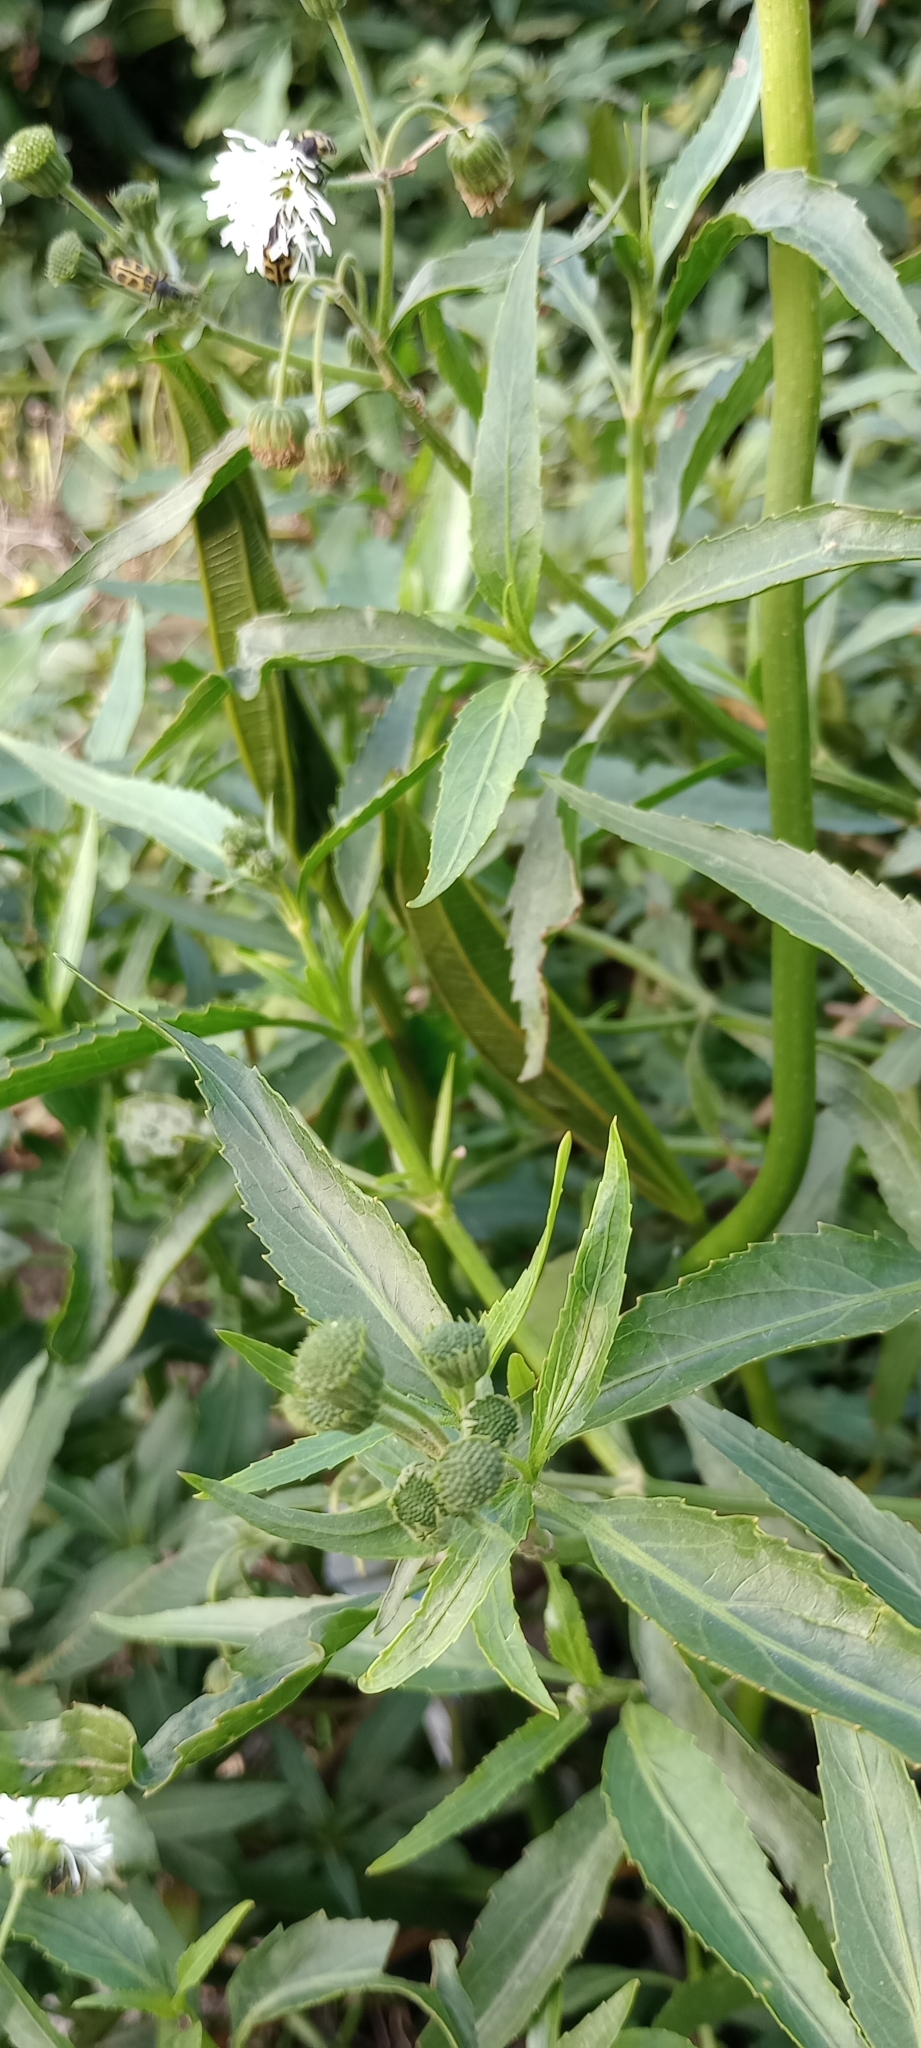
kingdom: Plantae
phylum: Tracheophyta
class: Magnoliopsida
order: Asterales
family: Asteraceae
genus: Gymnocoronis
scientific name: Gymnocoronis spilanthoides
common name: Senegal teaplant
